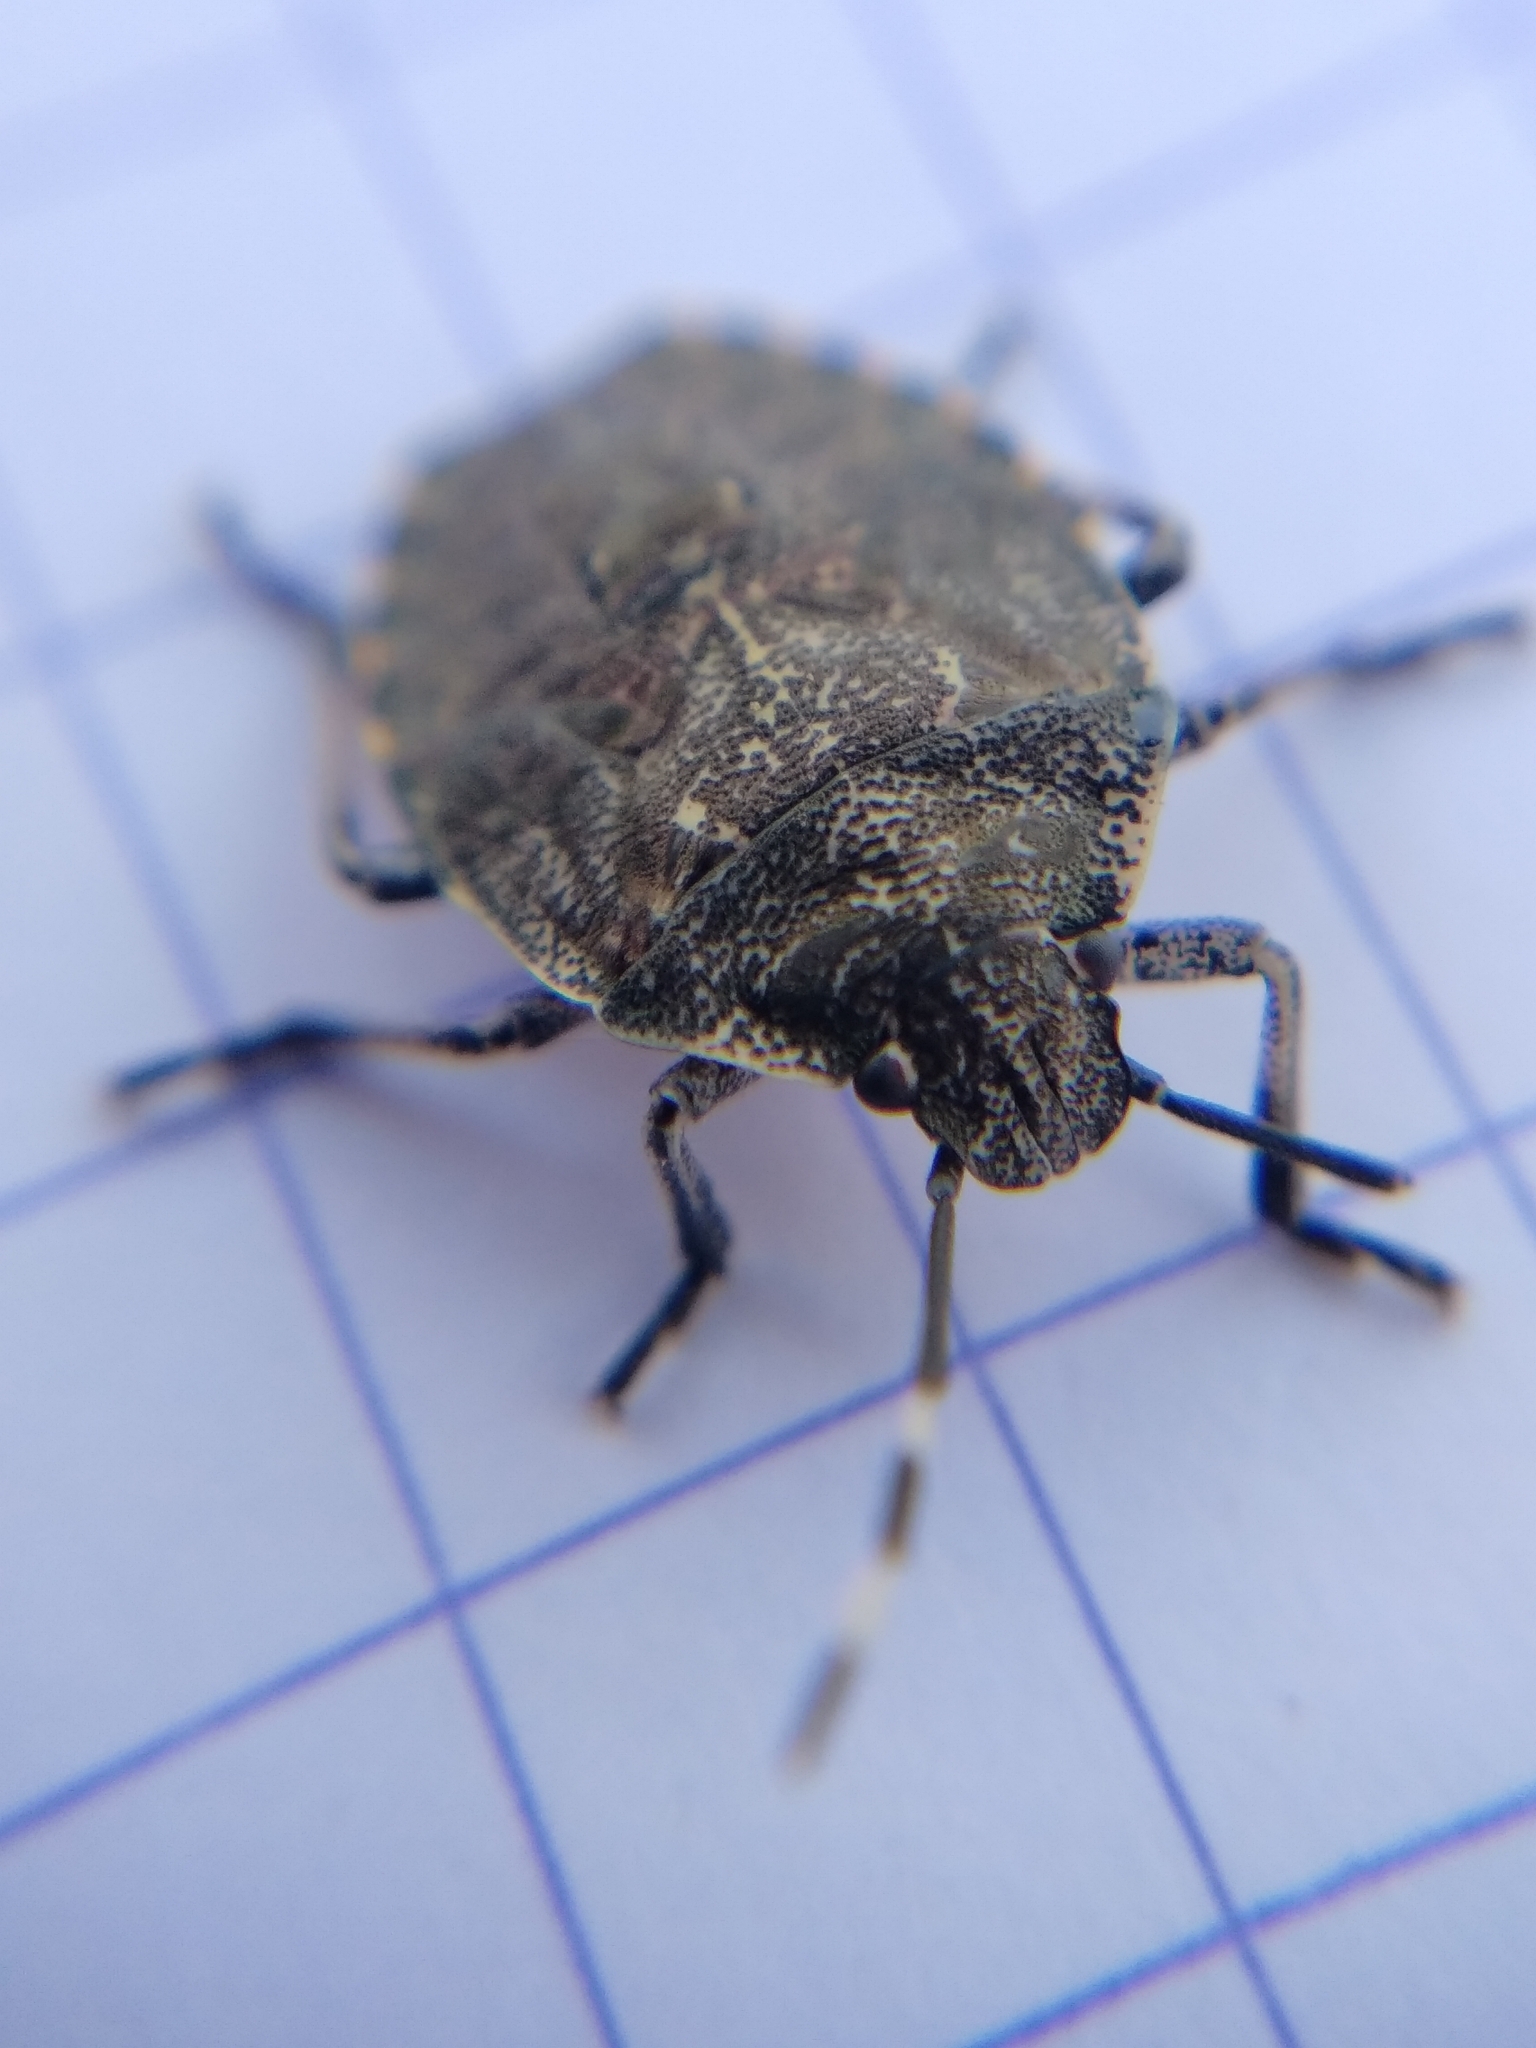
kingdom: Animalia
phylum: Arthropoda
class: Insecta
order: Hemiptera
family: Pentatomidae
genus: Rhaphigaster
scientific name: Rhaphigaster nebulosa
